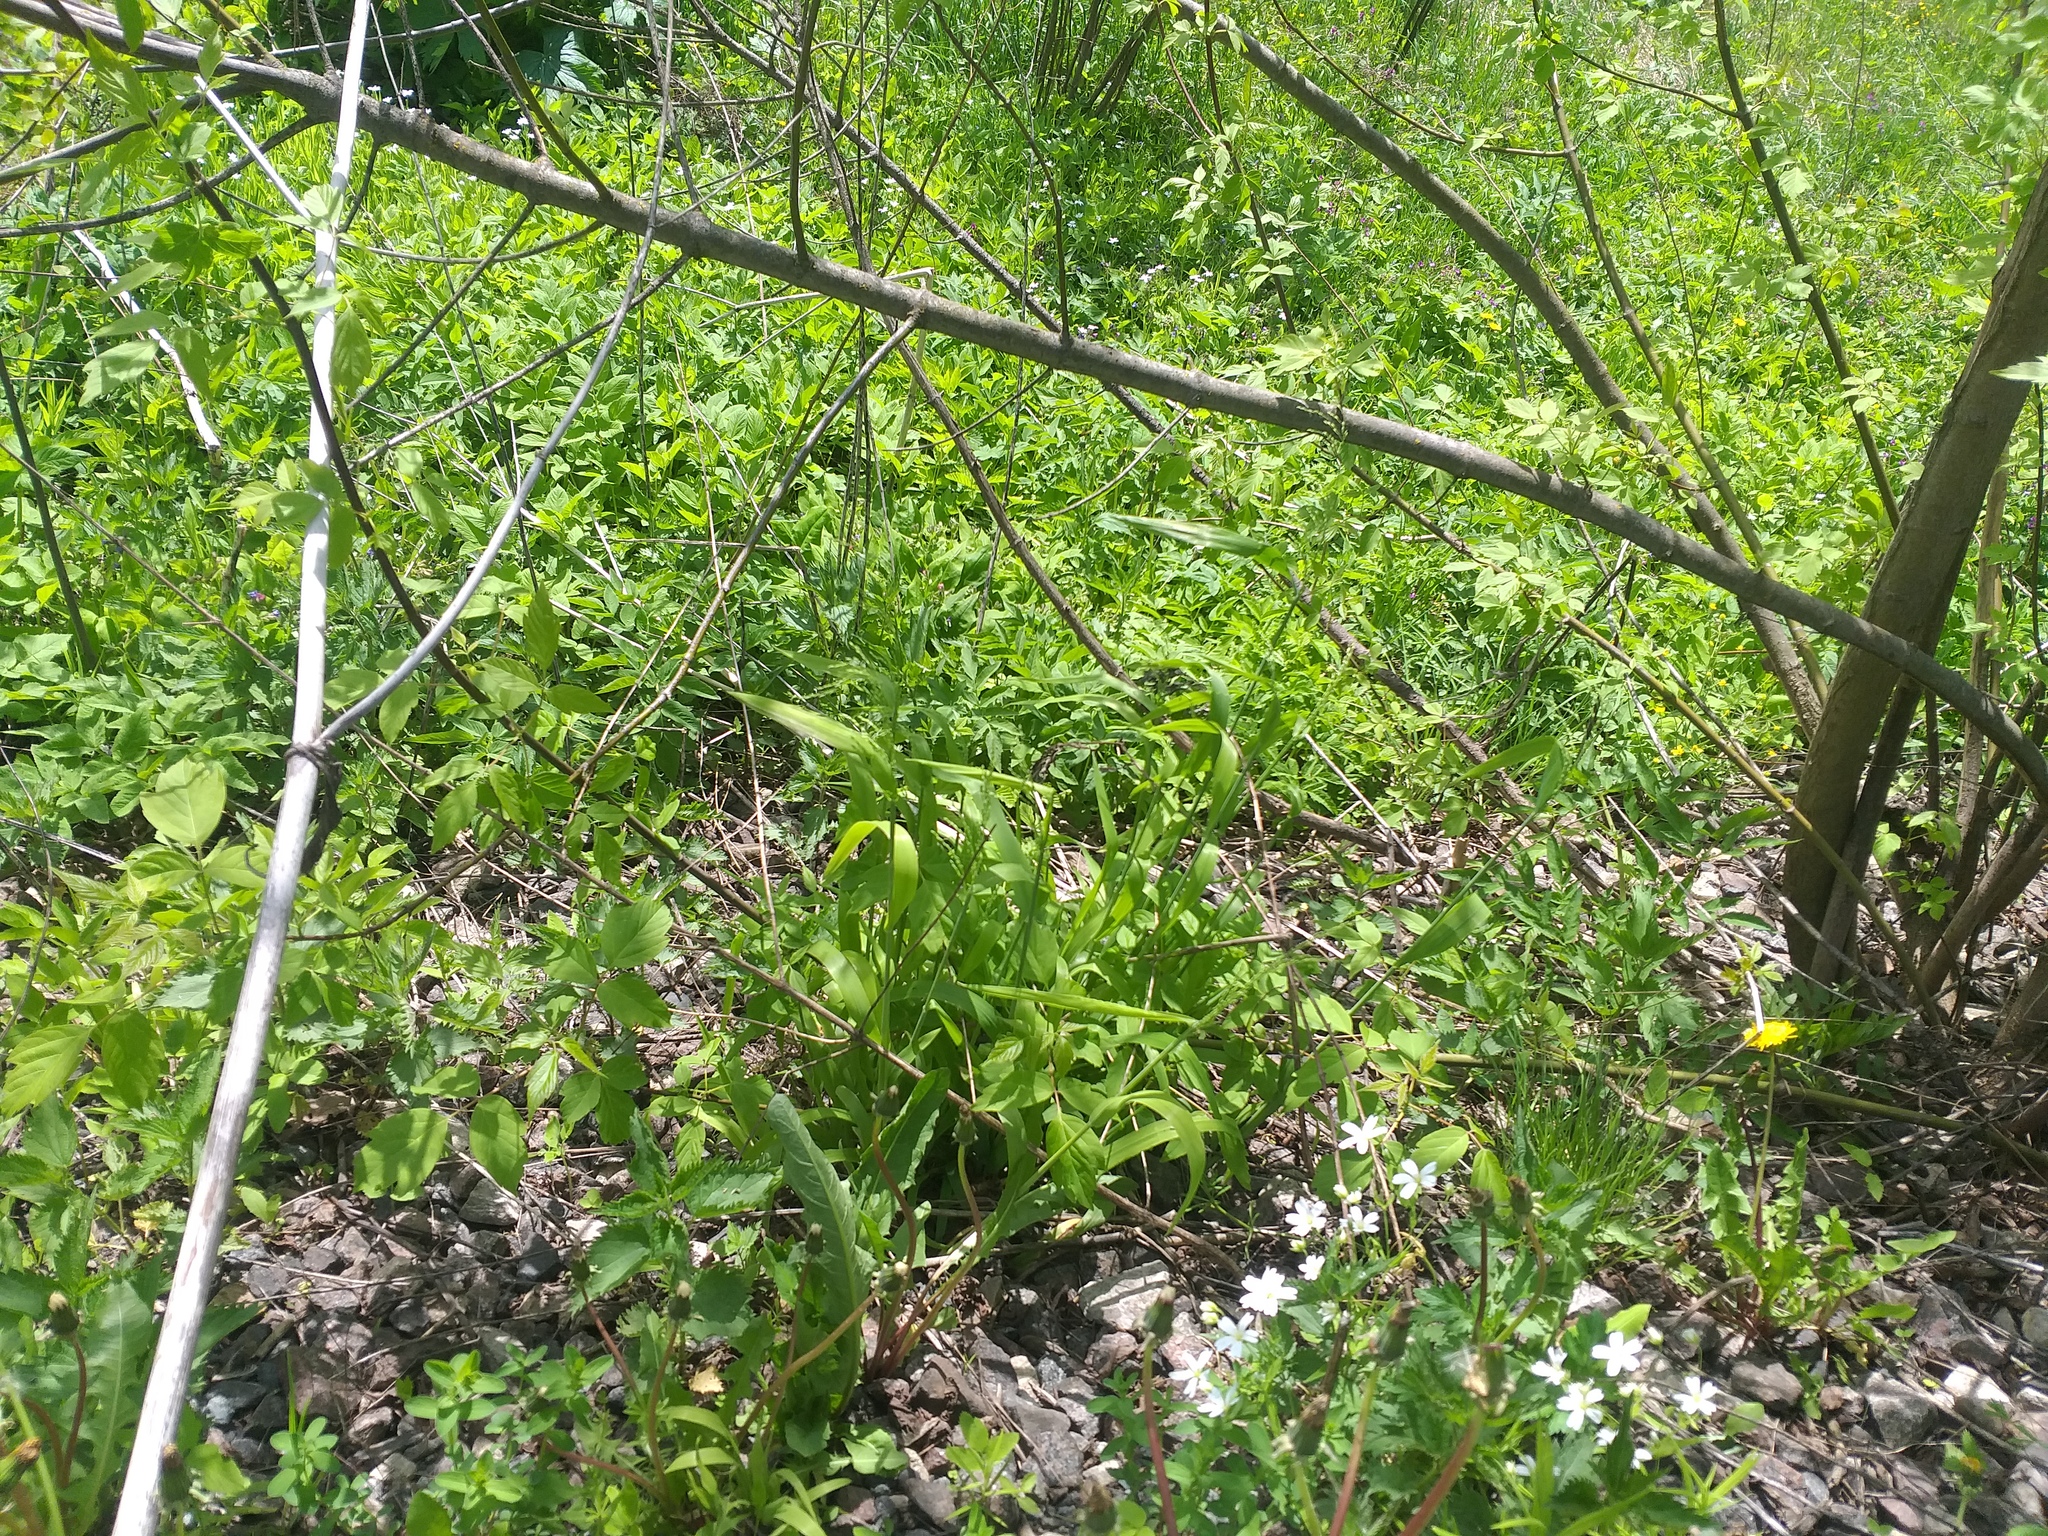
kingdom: Plantae
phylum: Tracheophyta
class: Liliopsida
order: Poales
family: Poaceae
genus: Milium
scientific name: Milium effusum
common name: Wood millet
